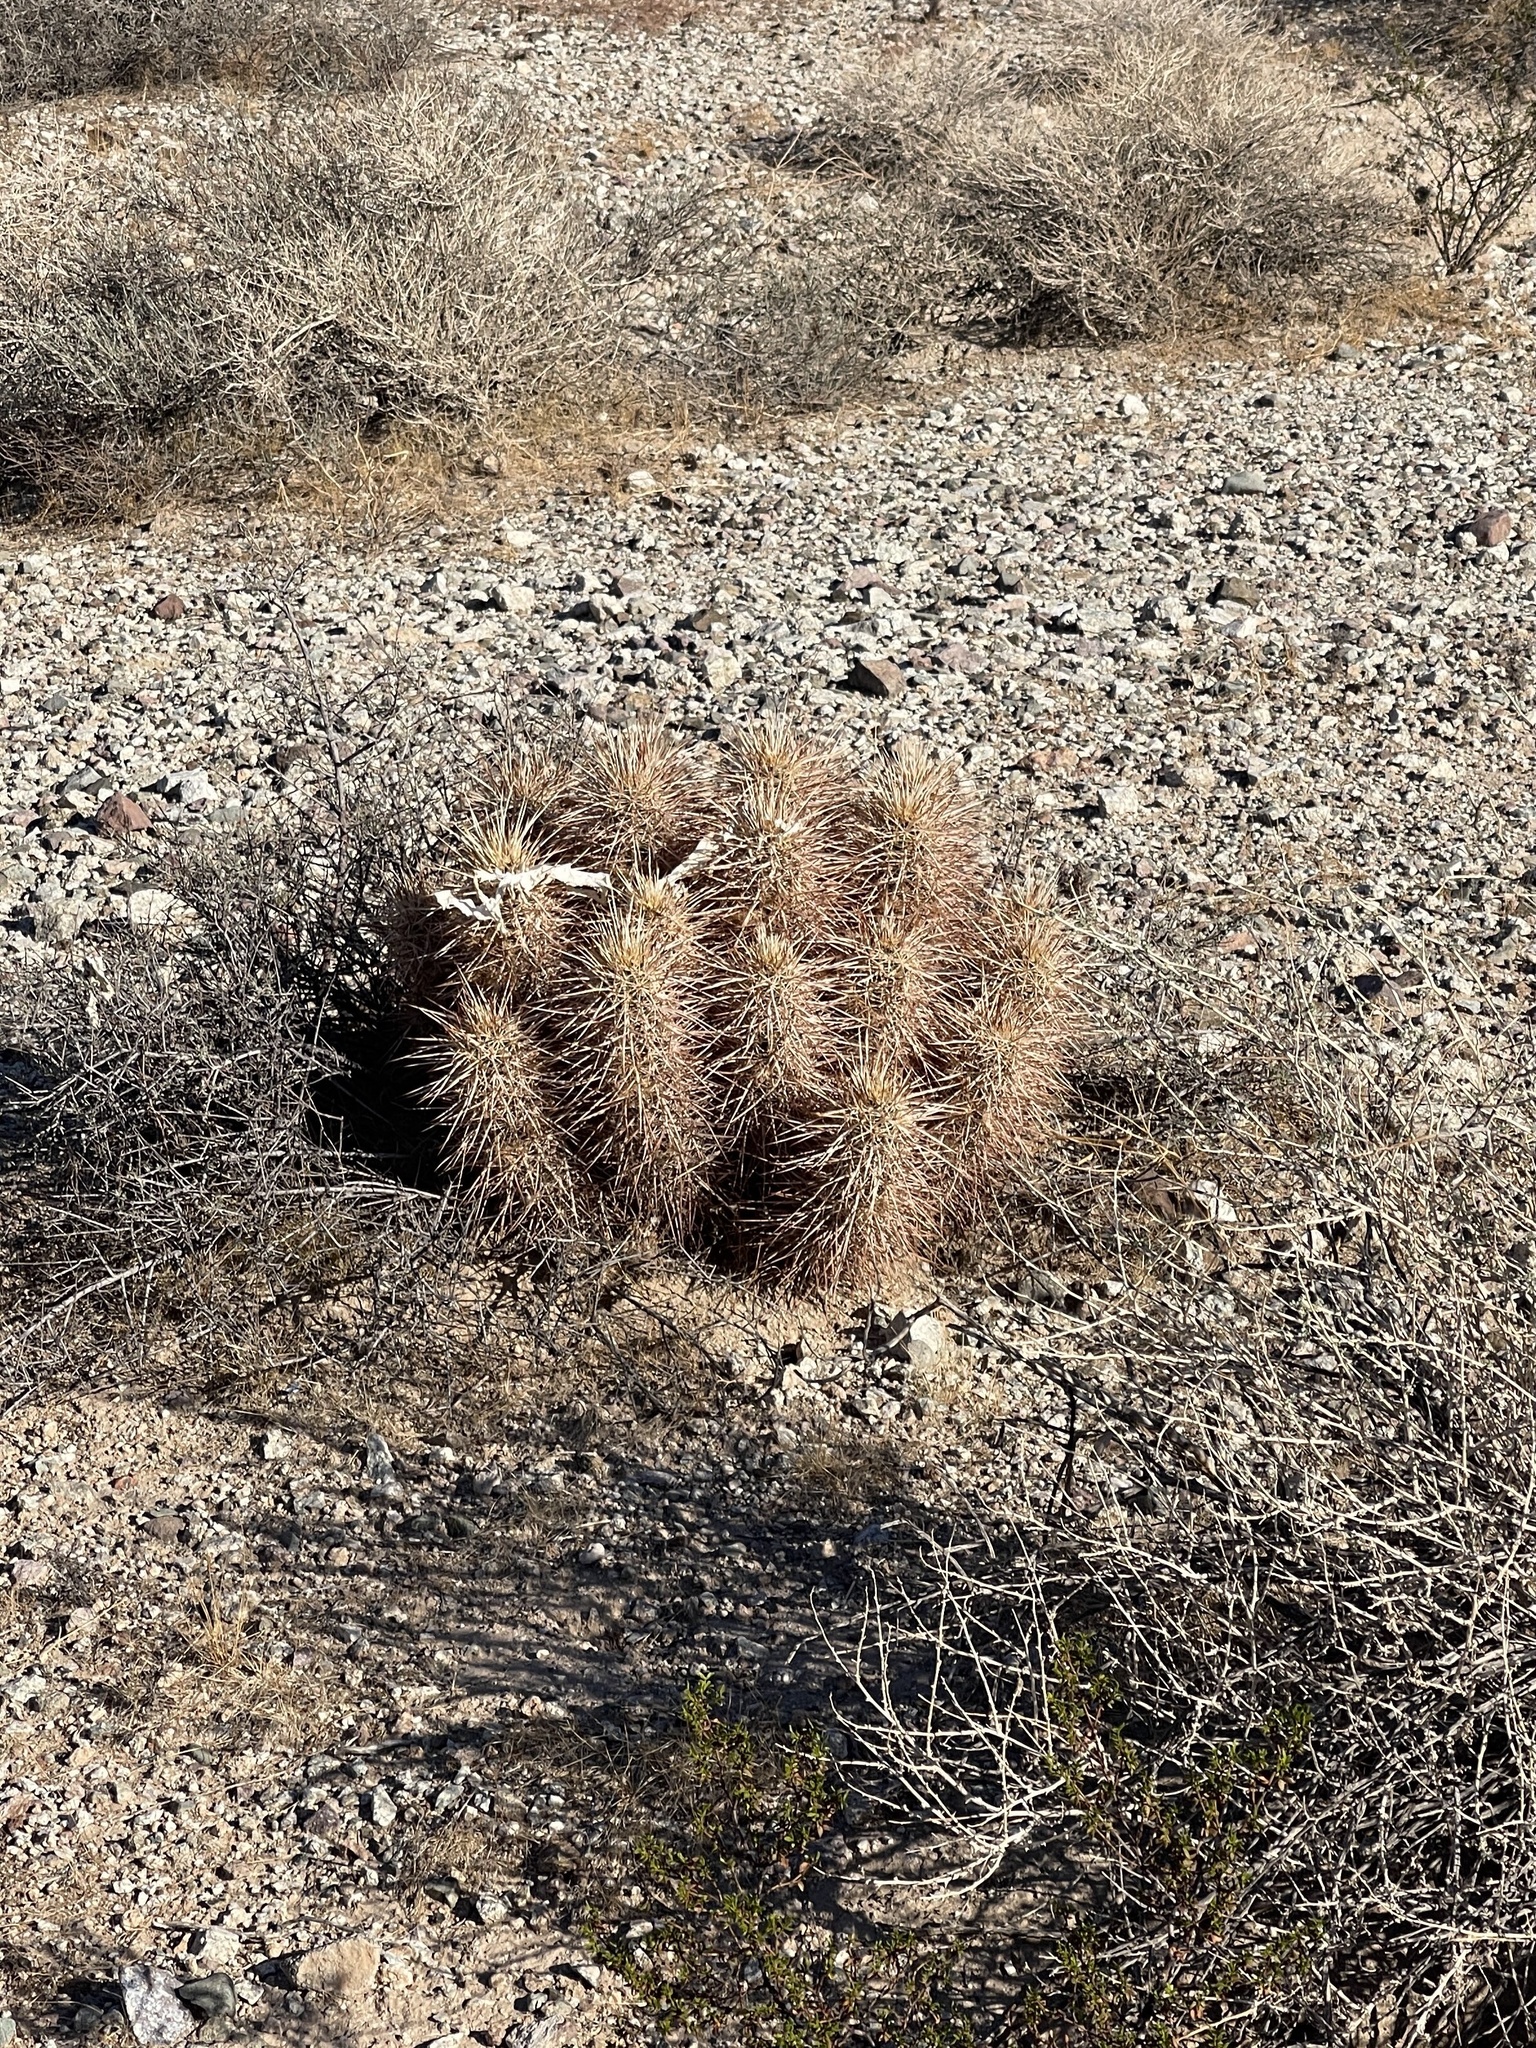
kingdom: Plantae
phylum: Tracheophyta
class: Magnoliopsida
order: Caryophyllales
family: Cactaceae
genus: Echinocereus
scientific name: Echinocereus engelmannii
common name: Engelmann's hedgehog cactus
